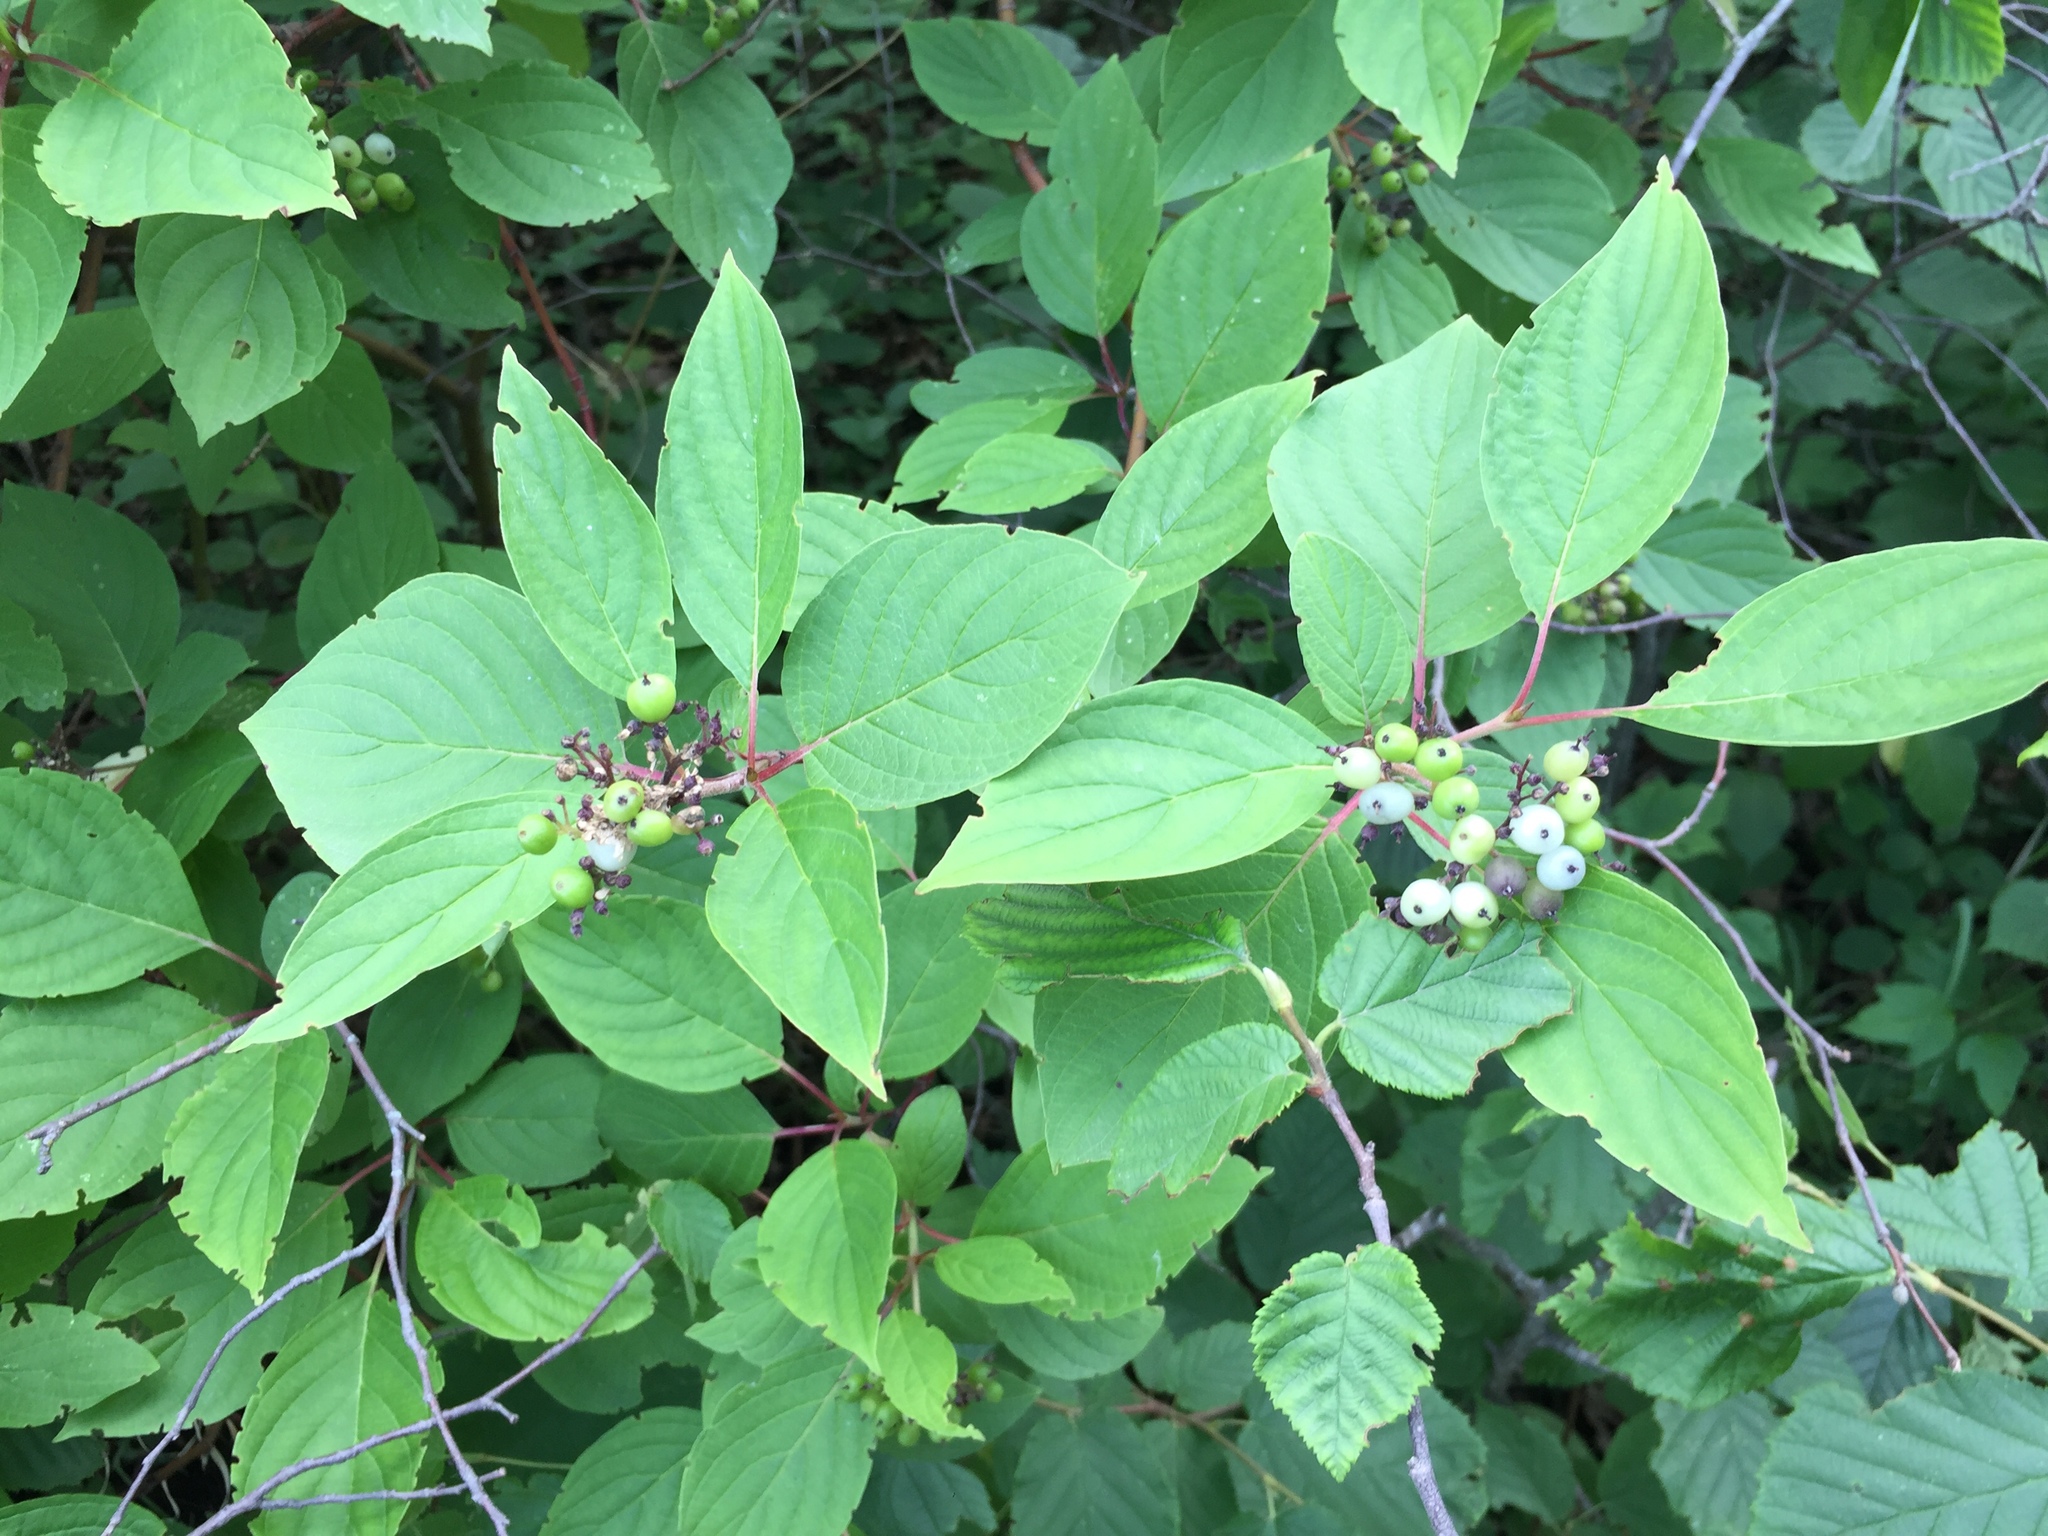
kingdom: Plantae
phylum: Tracheophyta
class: Magnoliopsida
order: Cornales
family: Cornaceae
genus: Cornus
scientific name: Cornus sericea
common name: Red-osier dogwood
